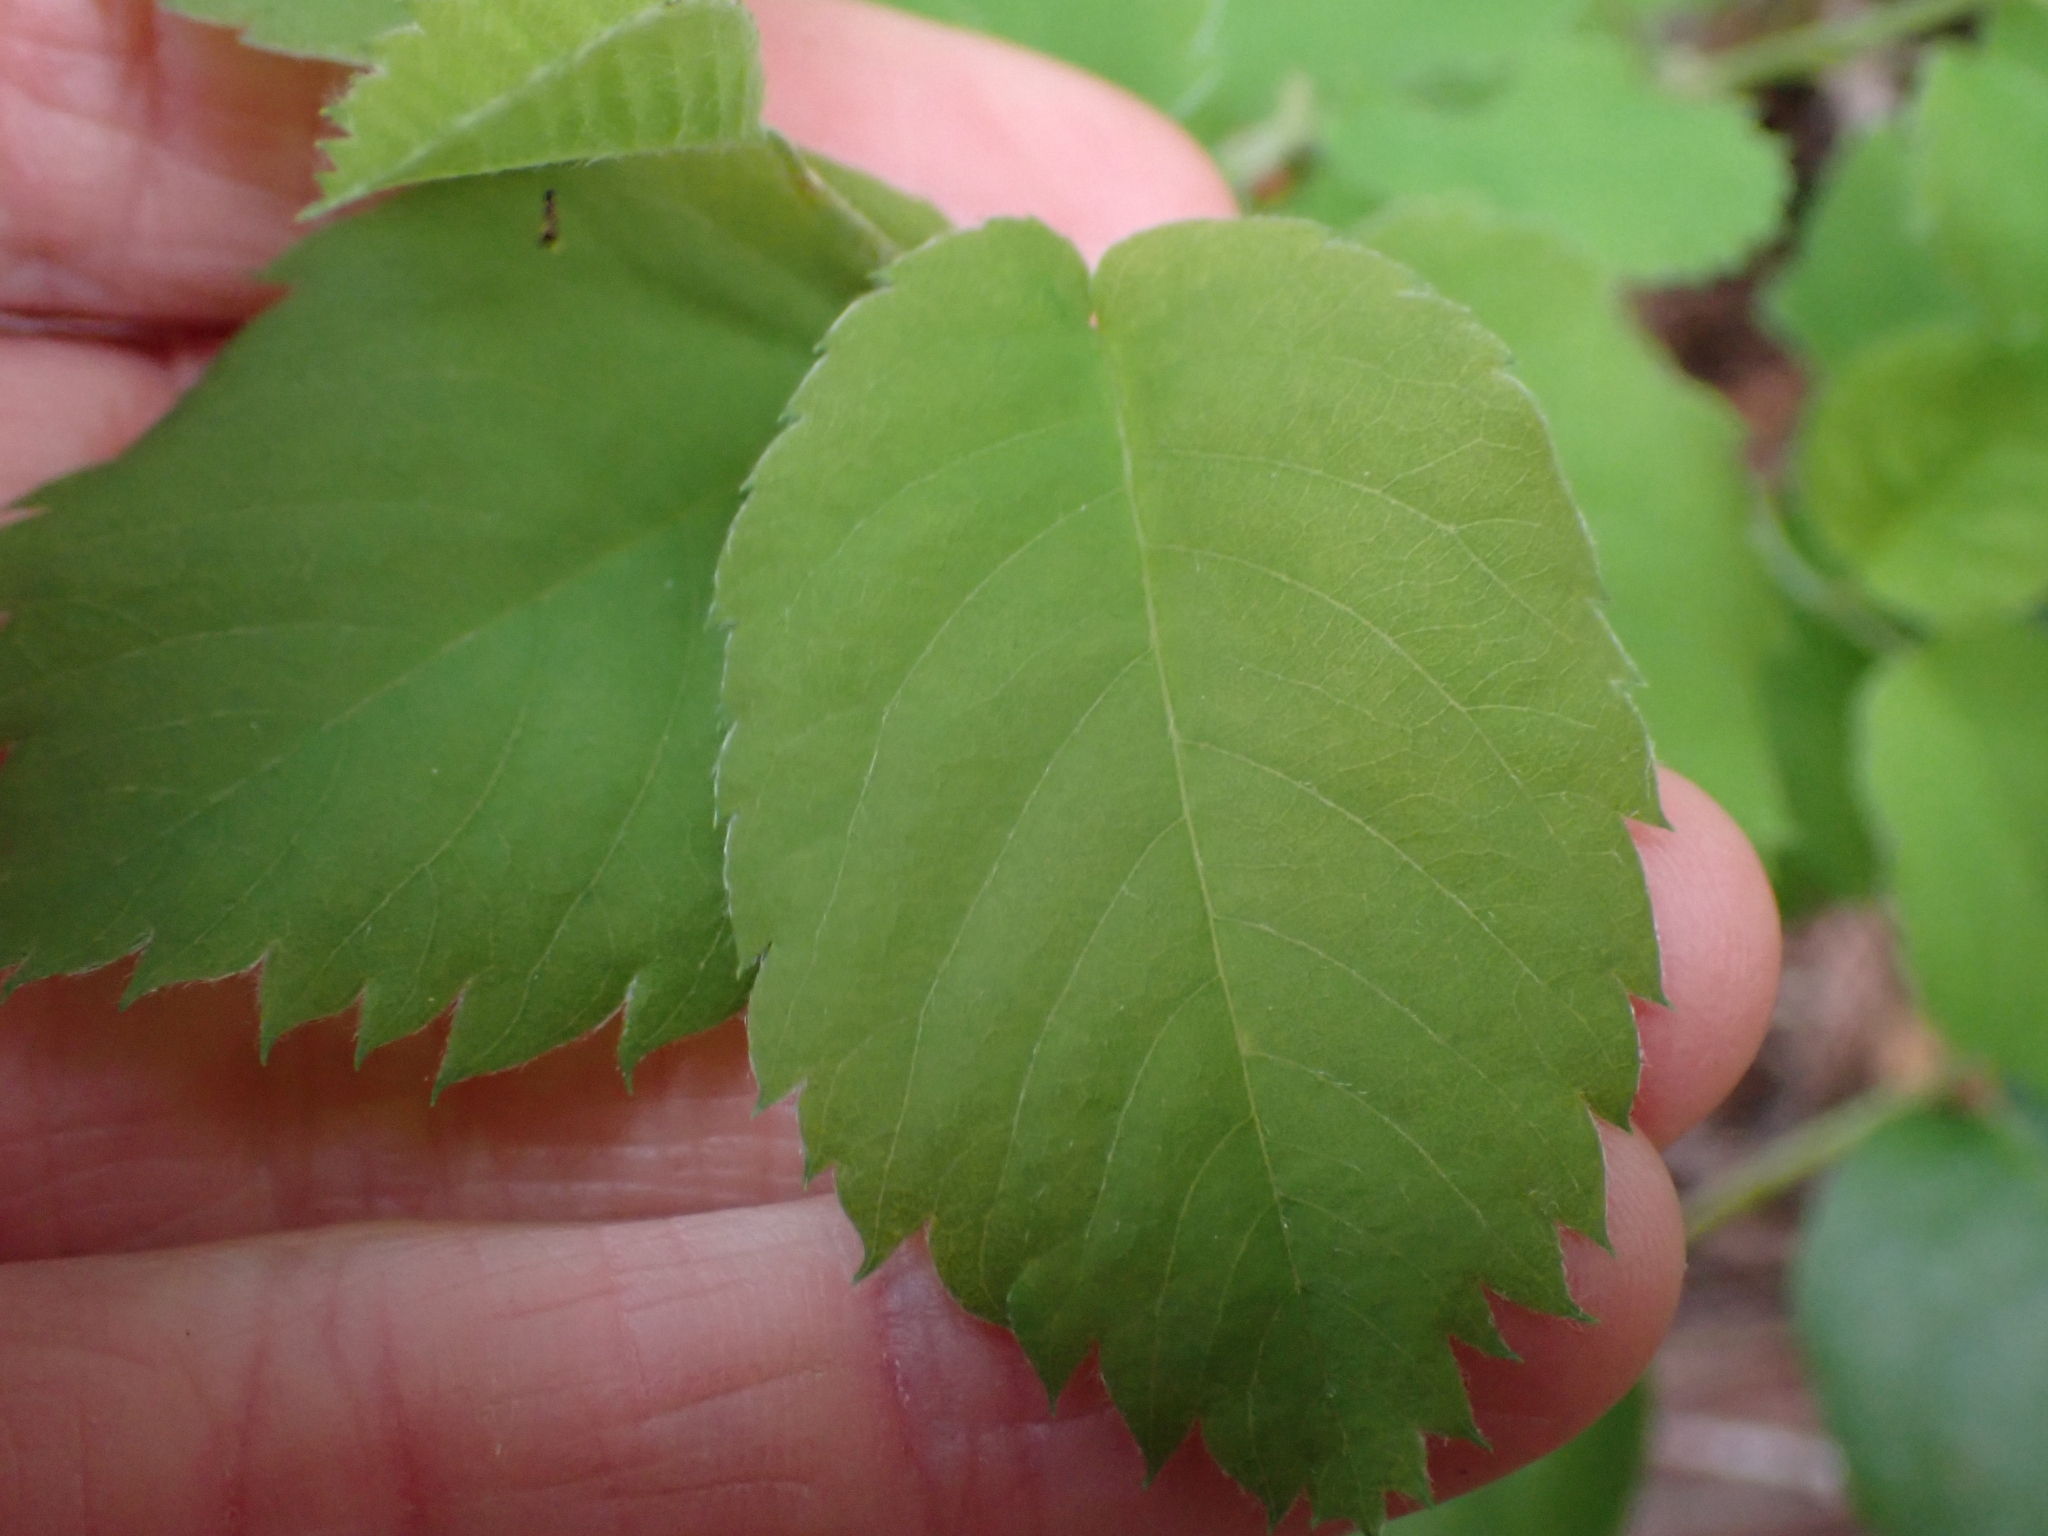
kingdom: Plantae
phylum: Tracheophyta
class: Magnoliopsida
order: Rosales
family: Rosaceae
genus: Amelanchier
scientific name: Amelanchier alnifolia
